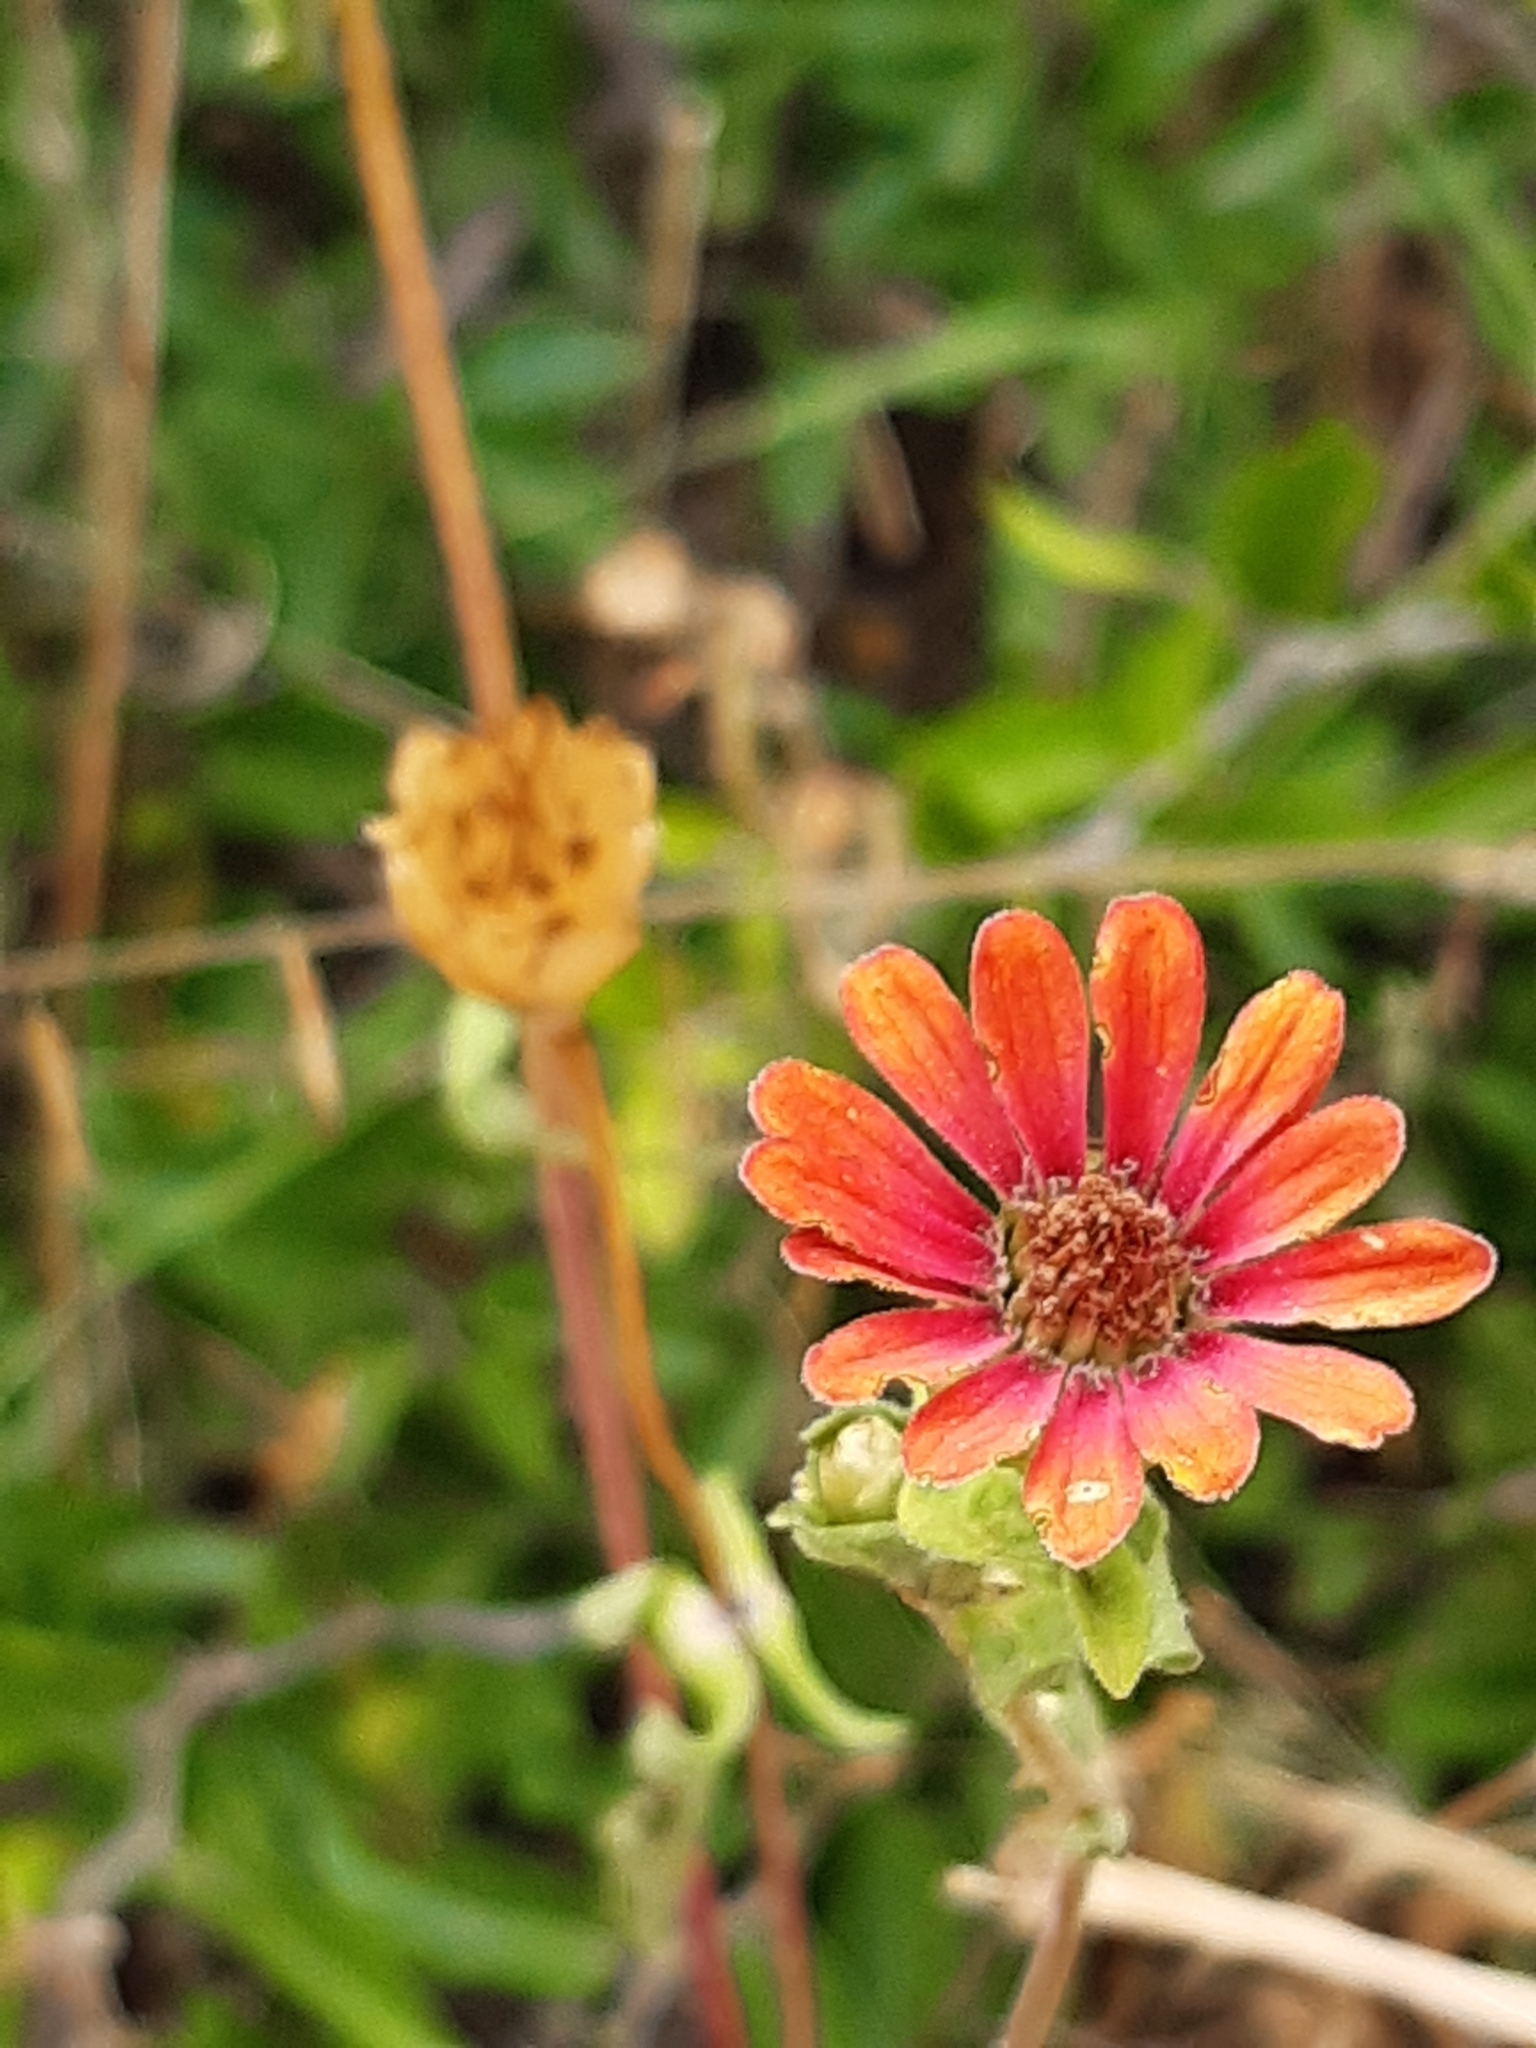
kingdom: Plantae
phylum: Tracheophyta
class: Magnoliopsida
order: Asterales
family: Asteraceae
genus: Zinnia
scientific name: Zinnia peruviana
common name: Peruvian zinnia
